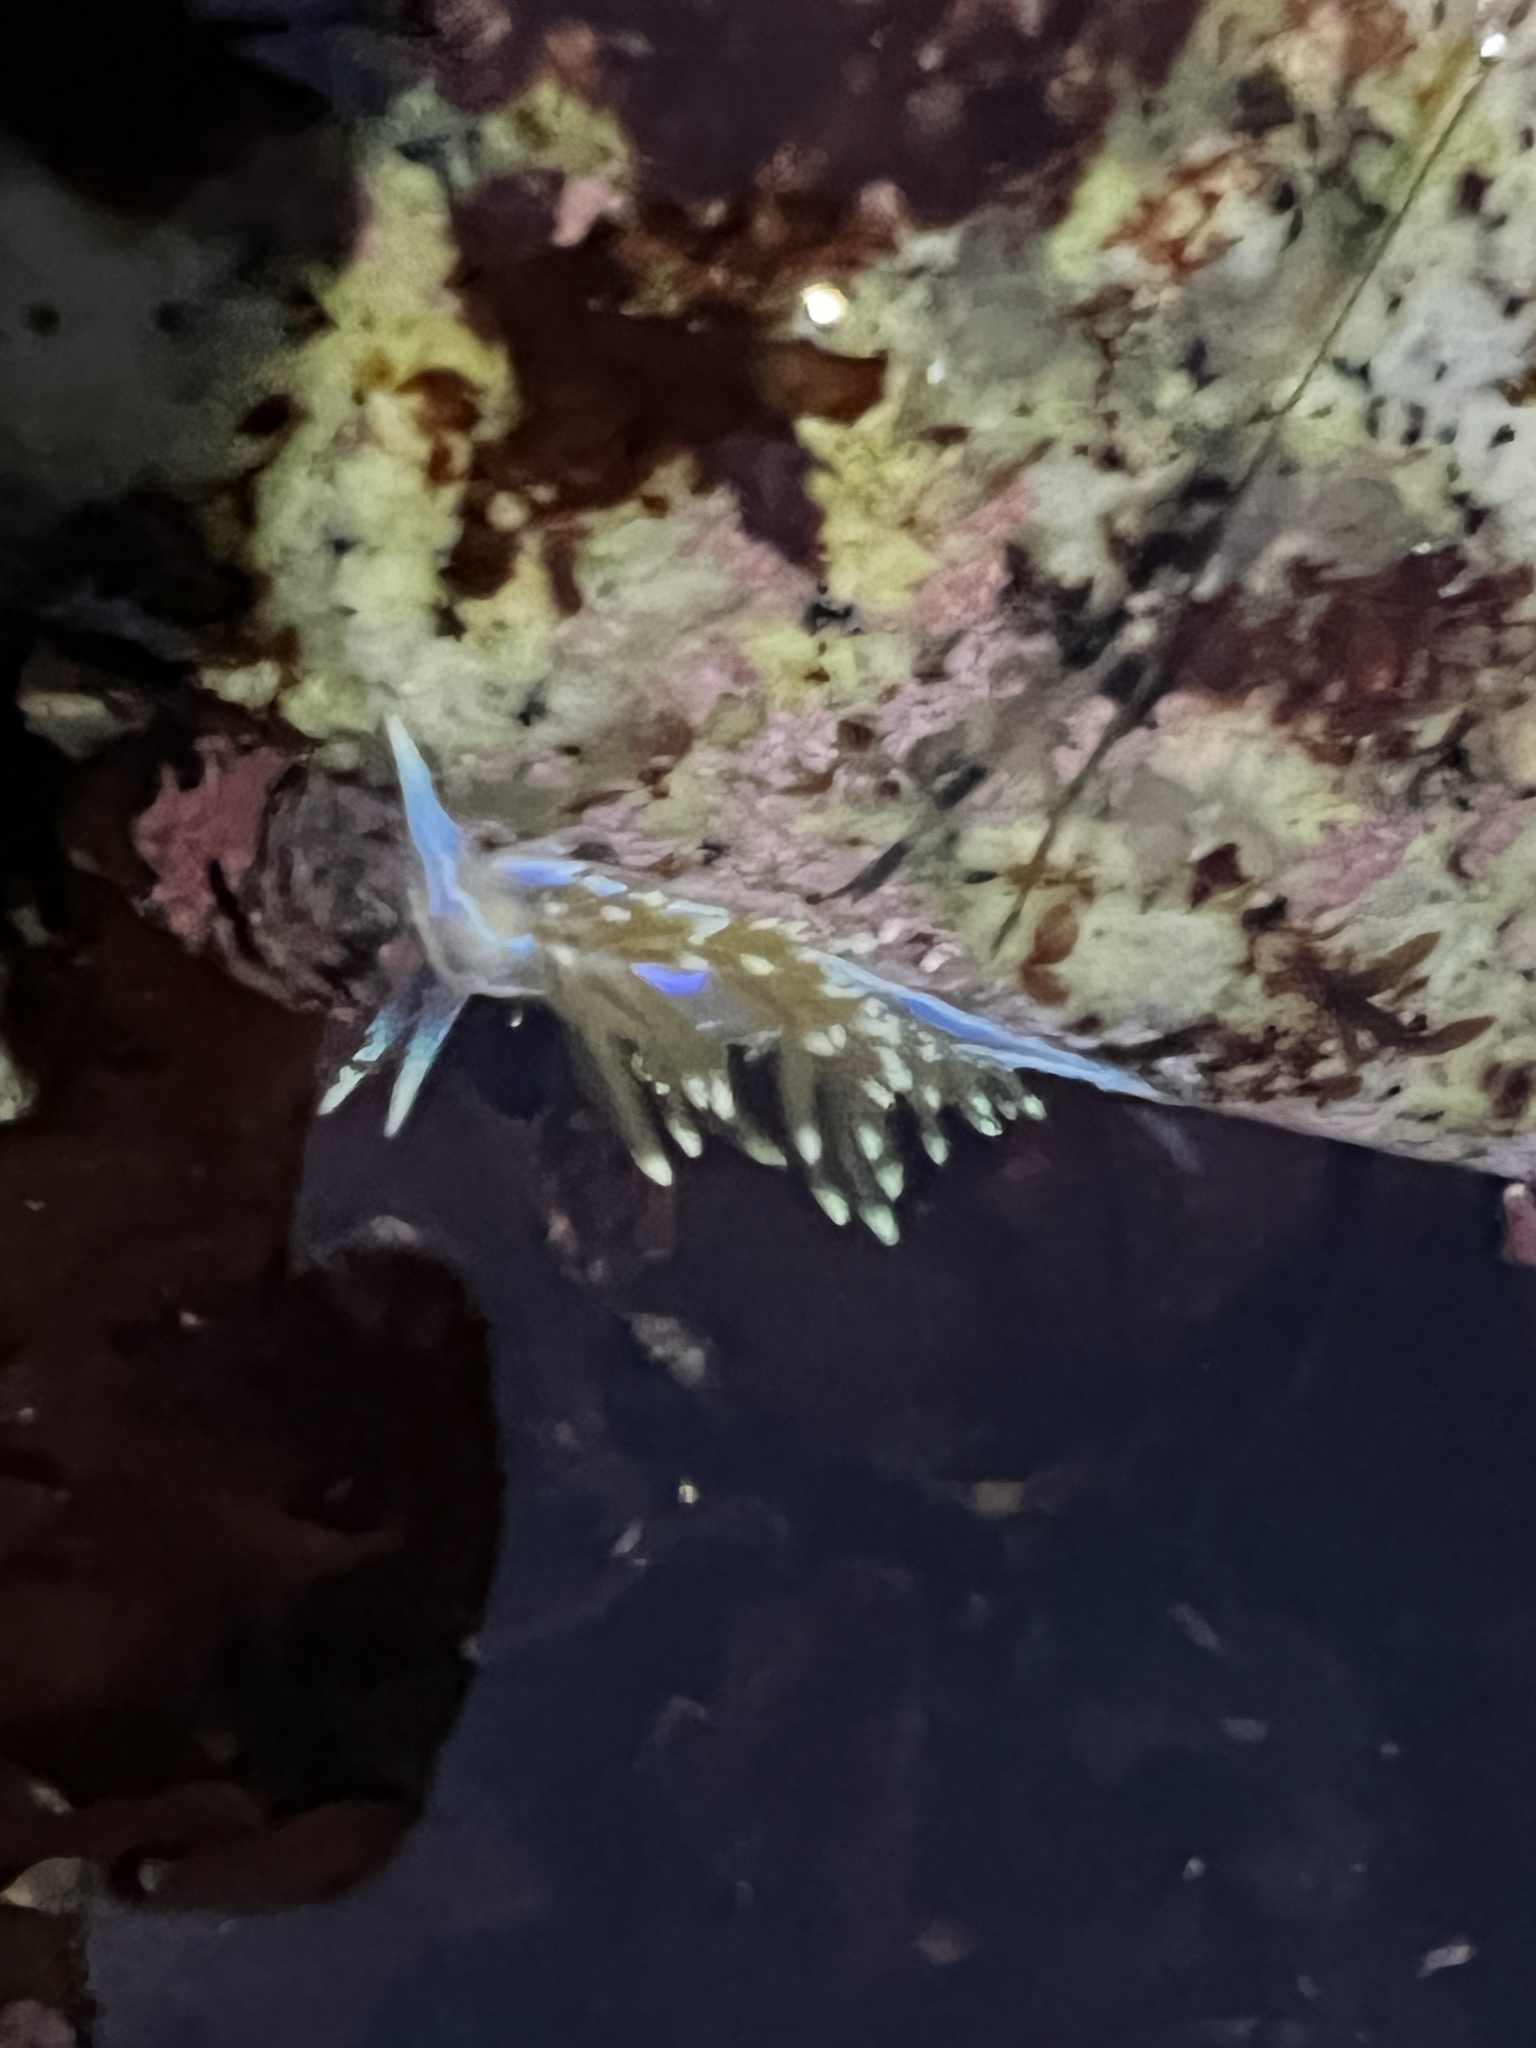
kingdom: Animalia
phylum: Mollusca
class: Gastropoda
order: Nudibranchia
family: Myrrhinidae
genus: Hermissenda
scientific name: Hermissenda opalescens
